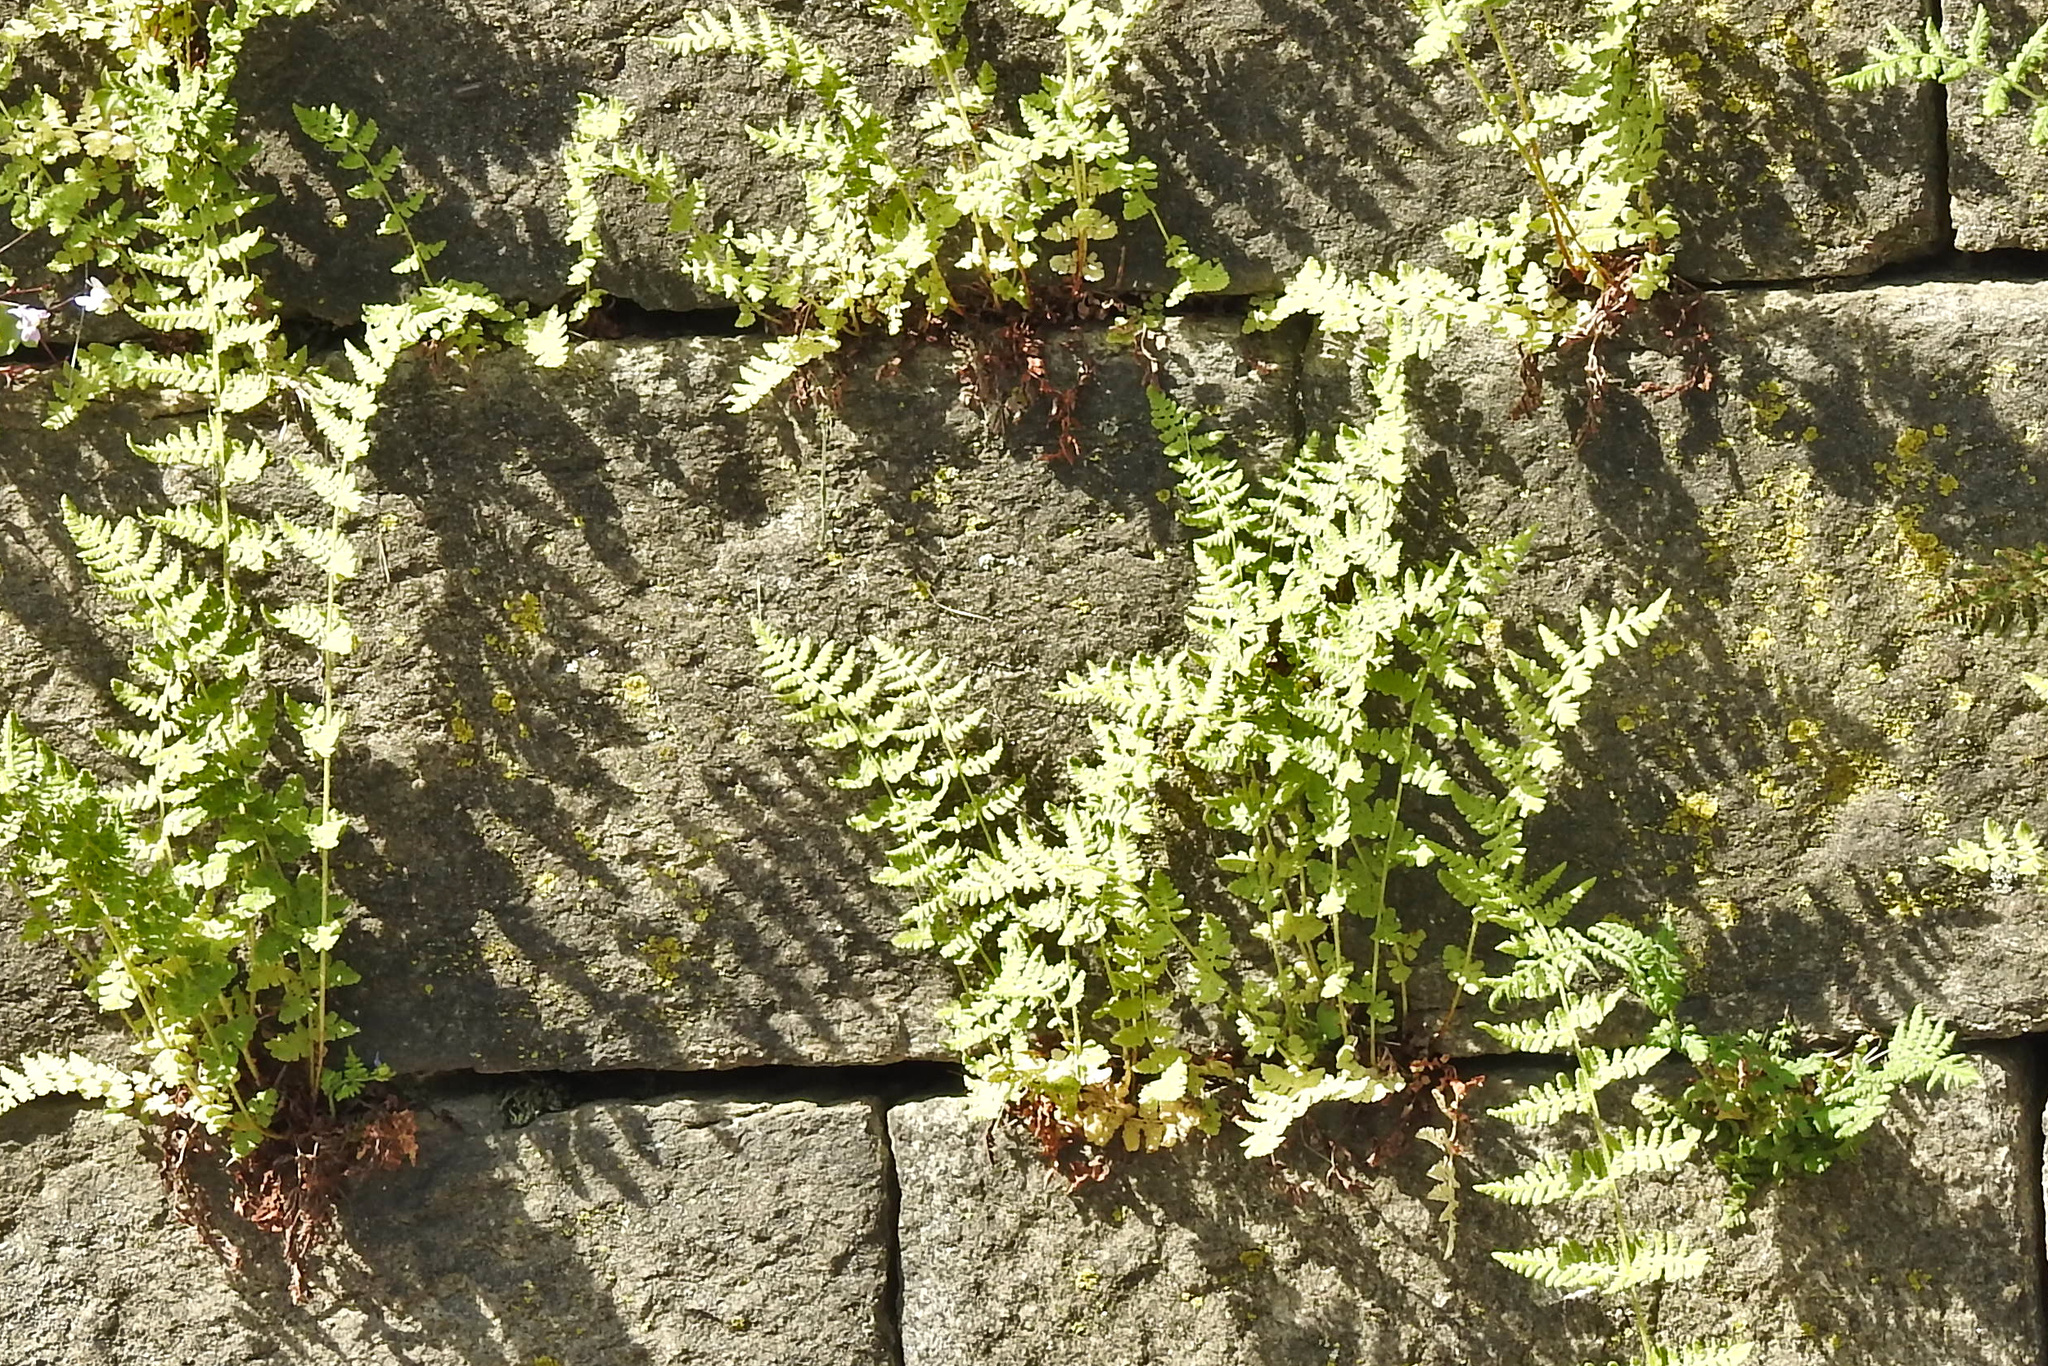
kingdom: Plantae
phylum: Tracheophyta
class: Polypodiopsida
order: Polypodiales
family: Woodsiaceae
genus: Physematium
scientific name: Physematium obtusum
